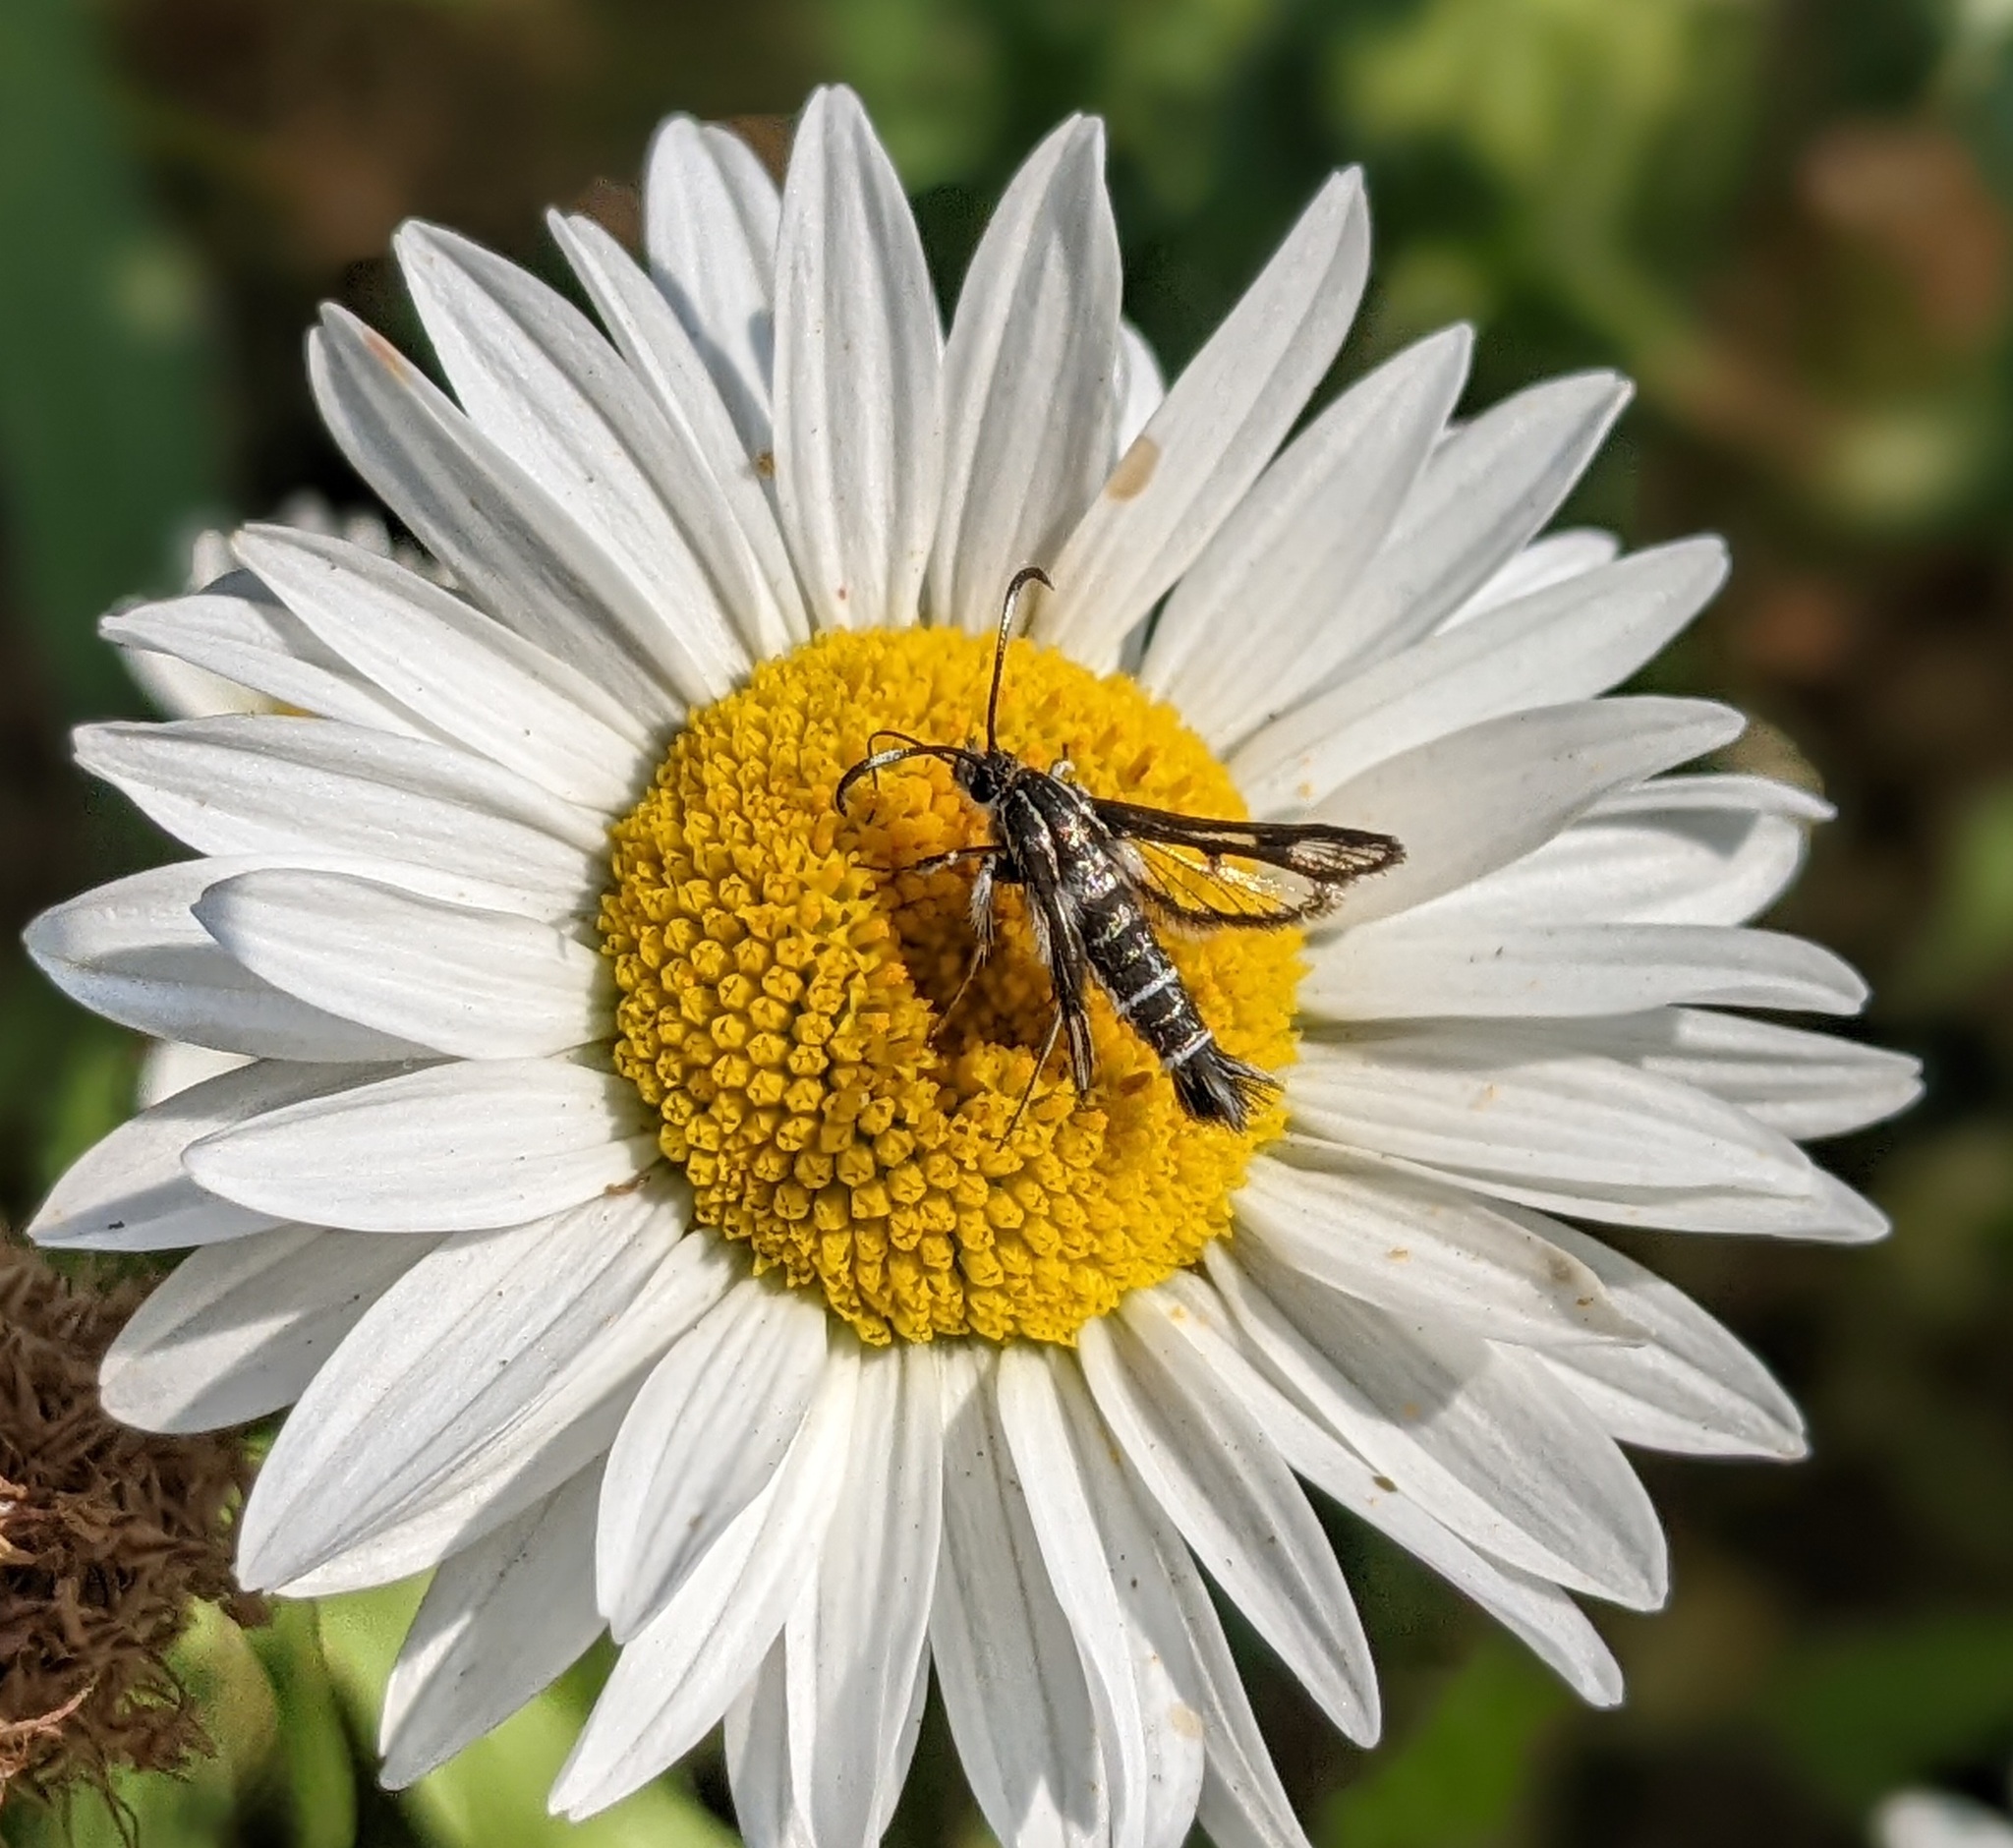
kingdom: Animalia
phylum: Arthropoda
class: Insecta
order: Lepidoptera
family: Sesiidae
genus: Pyropteron
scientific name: Pyropteron muscaeformis
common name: Thrift clearwing
